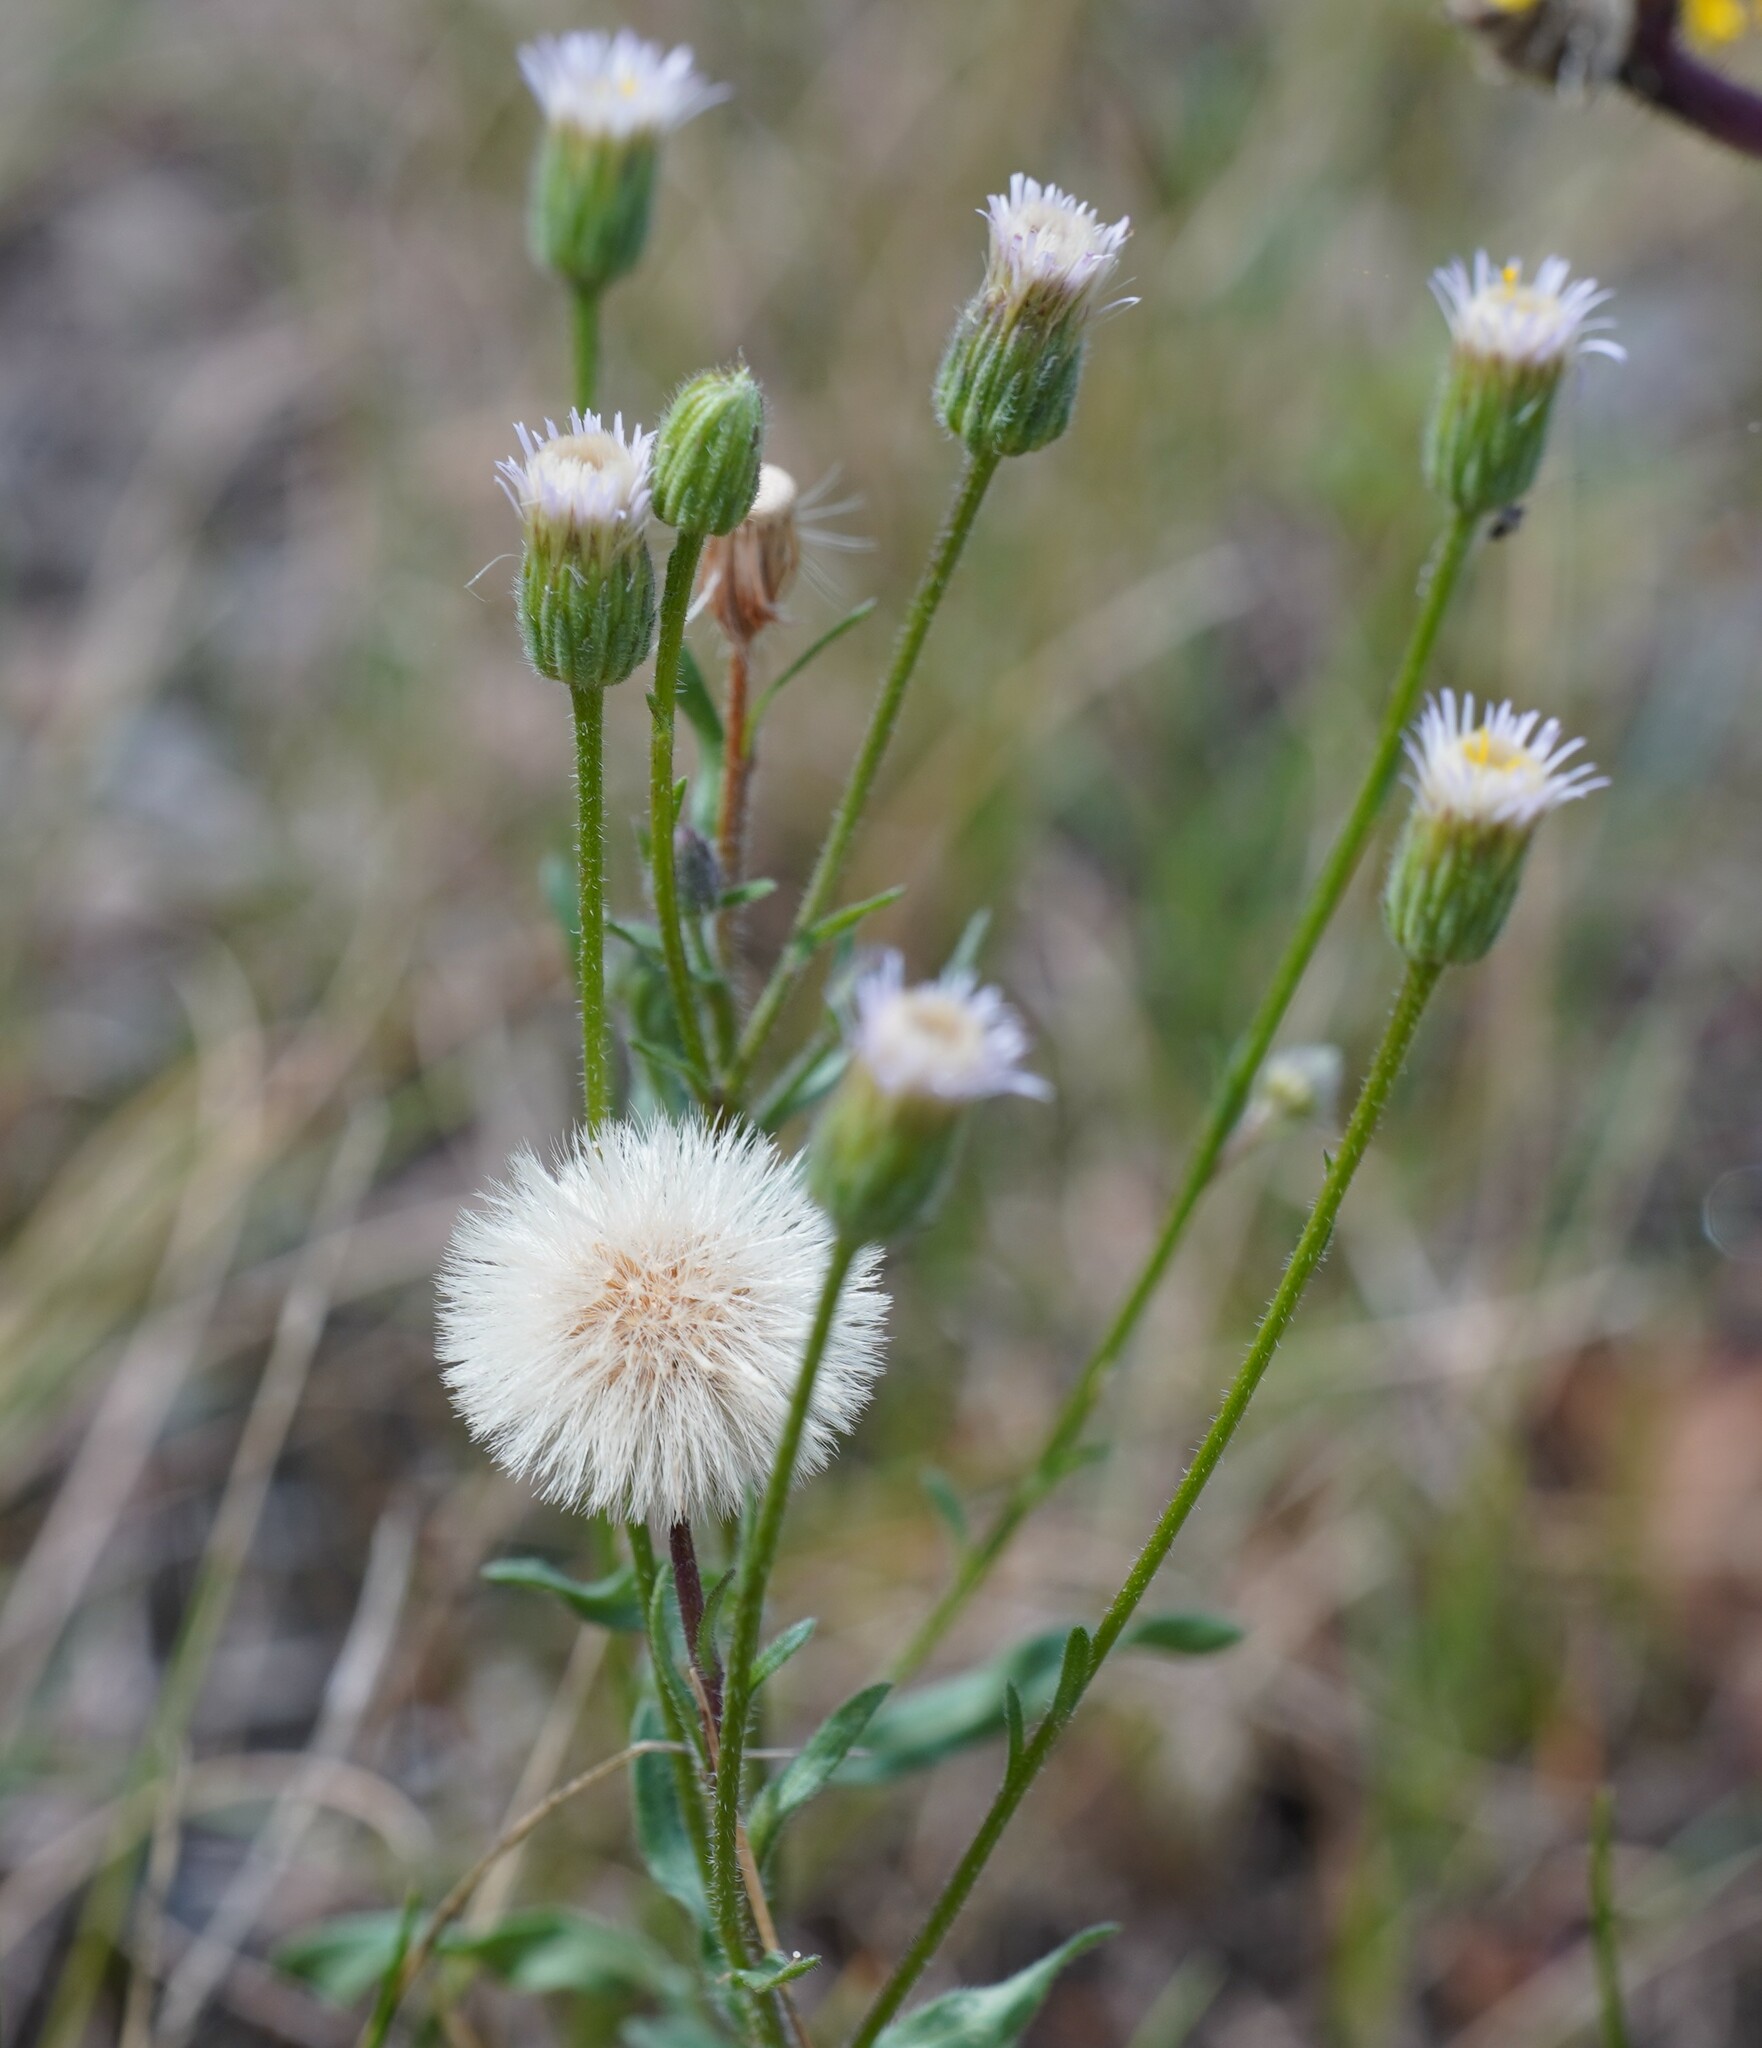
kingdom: Plantae
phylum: Tracheophyta
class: Magnoliopsida
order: Asterales
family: Asteraceae
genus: Erigeron
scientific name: Erigeron acris
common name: Blue fleabane
